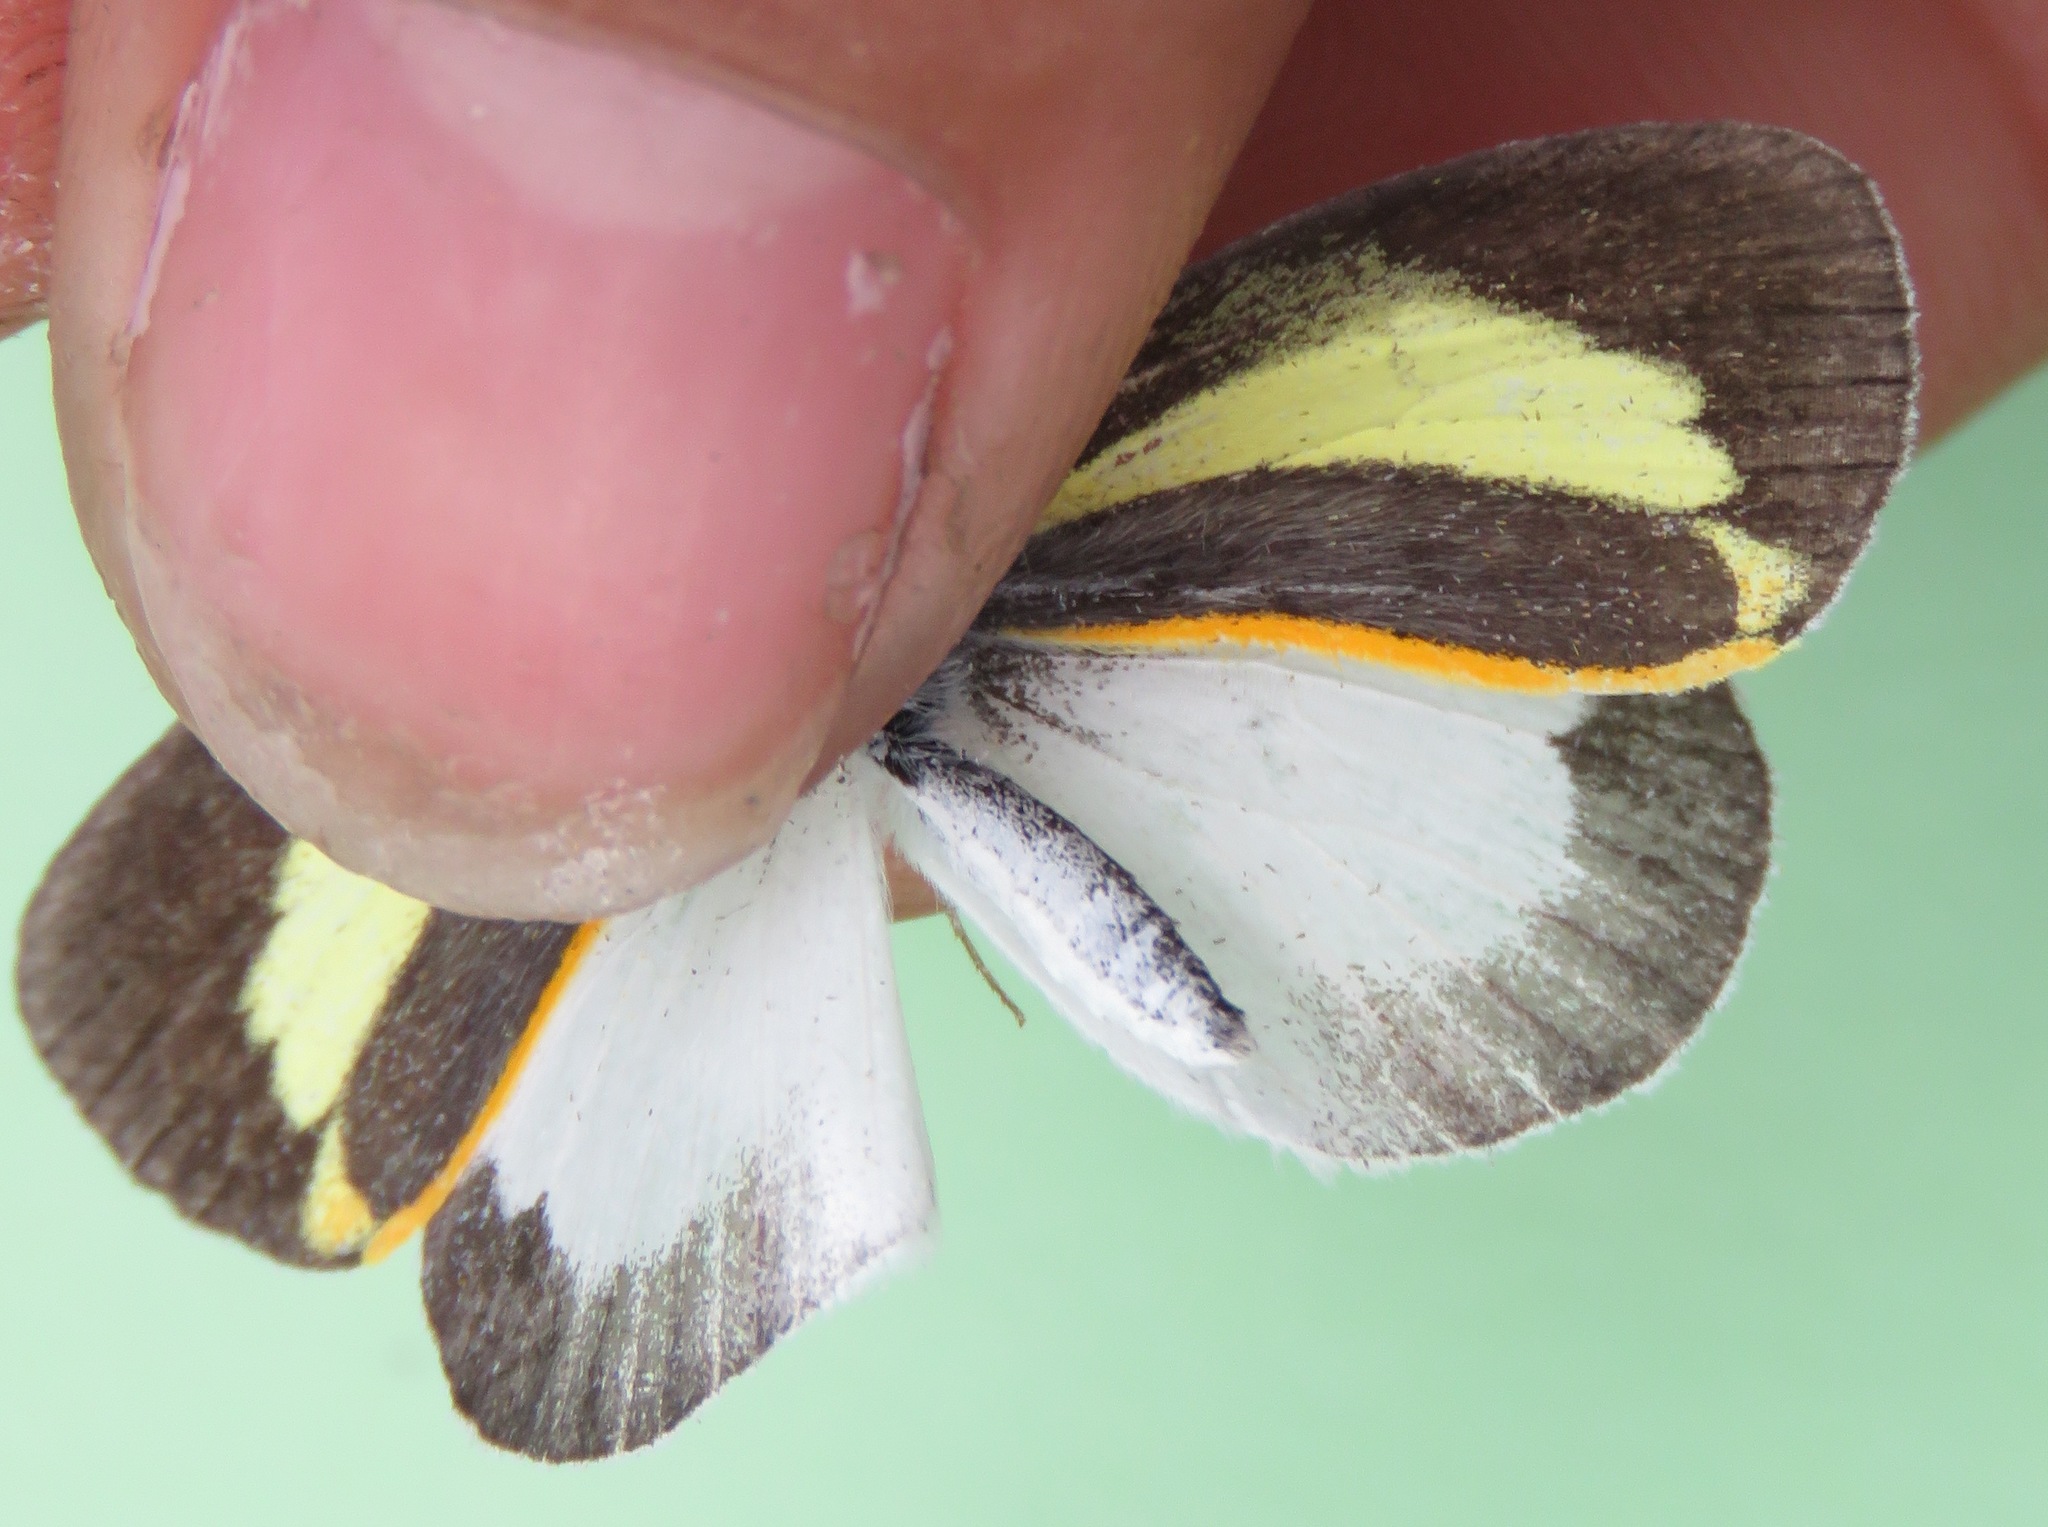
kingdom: Animalia
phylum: Arthropoda
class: Insecta
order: Lepidoptera
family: Pieridae
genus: Eurema
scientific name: Eurema daira
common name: Barred sulphur
